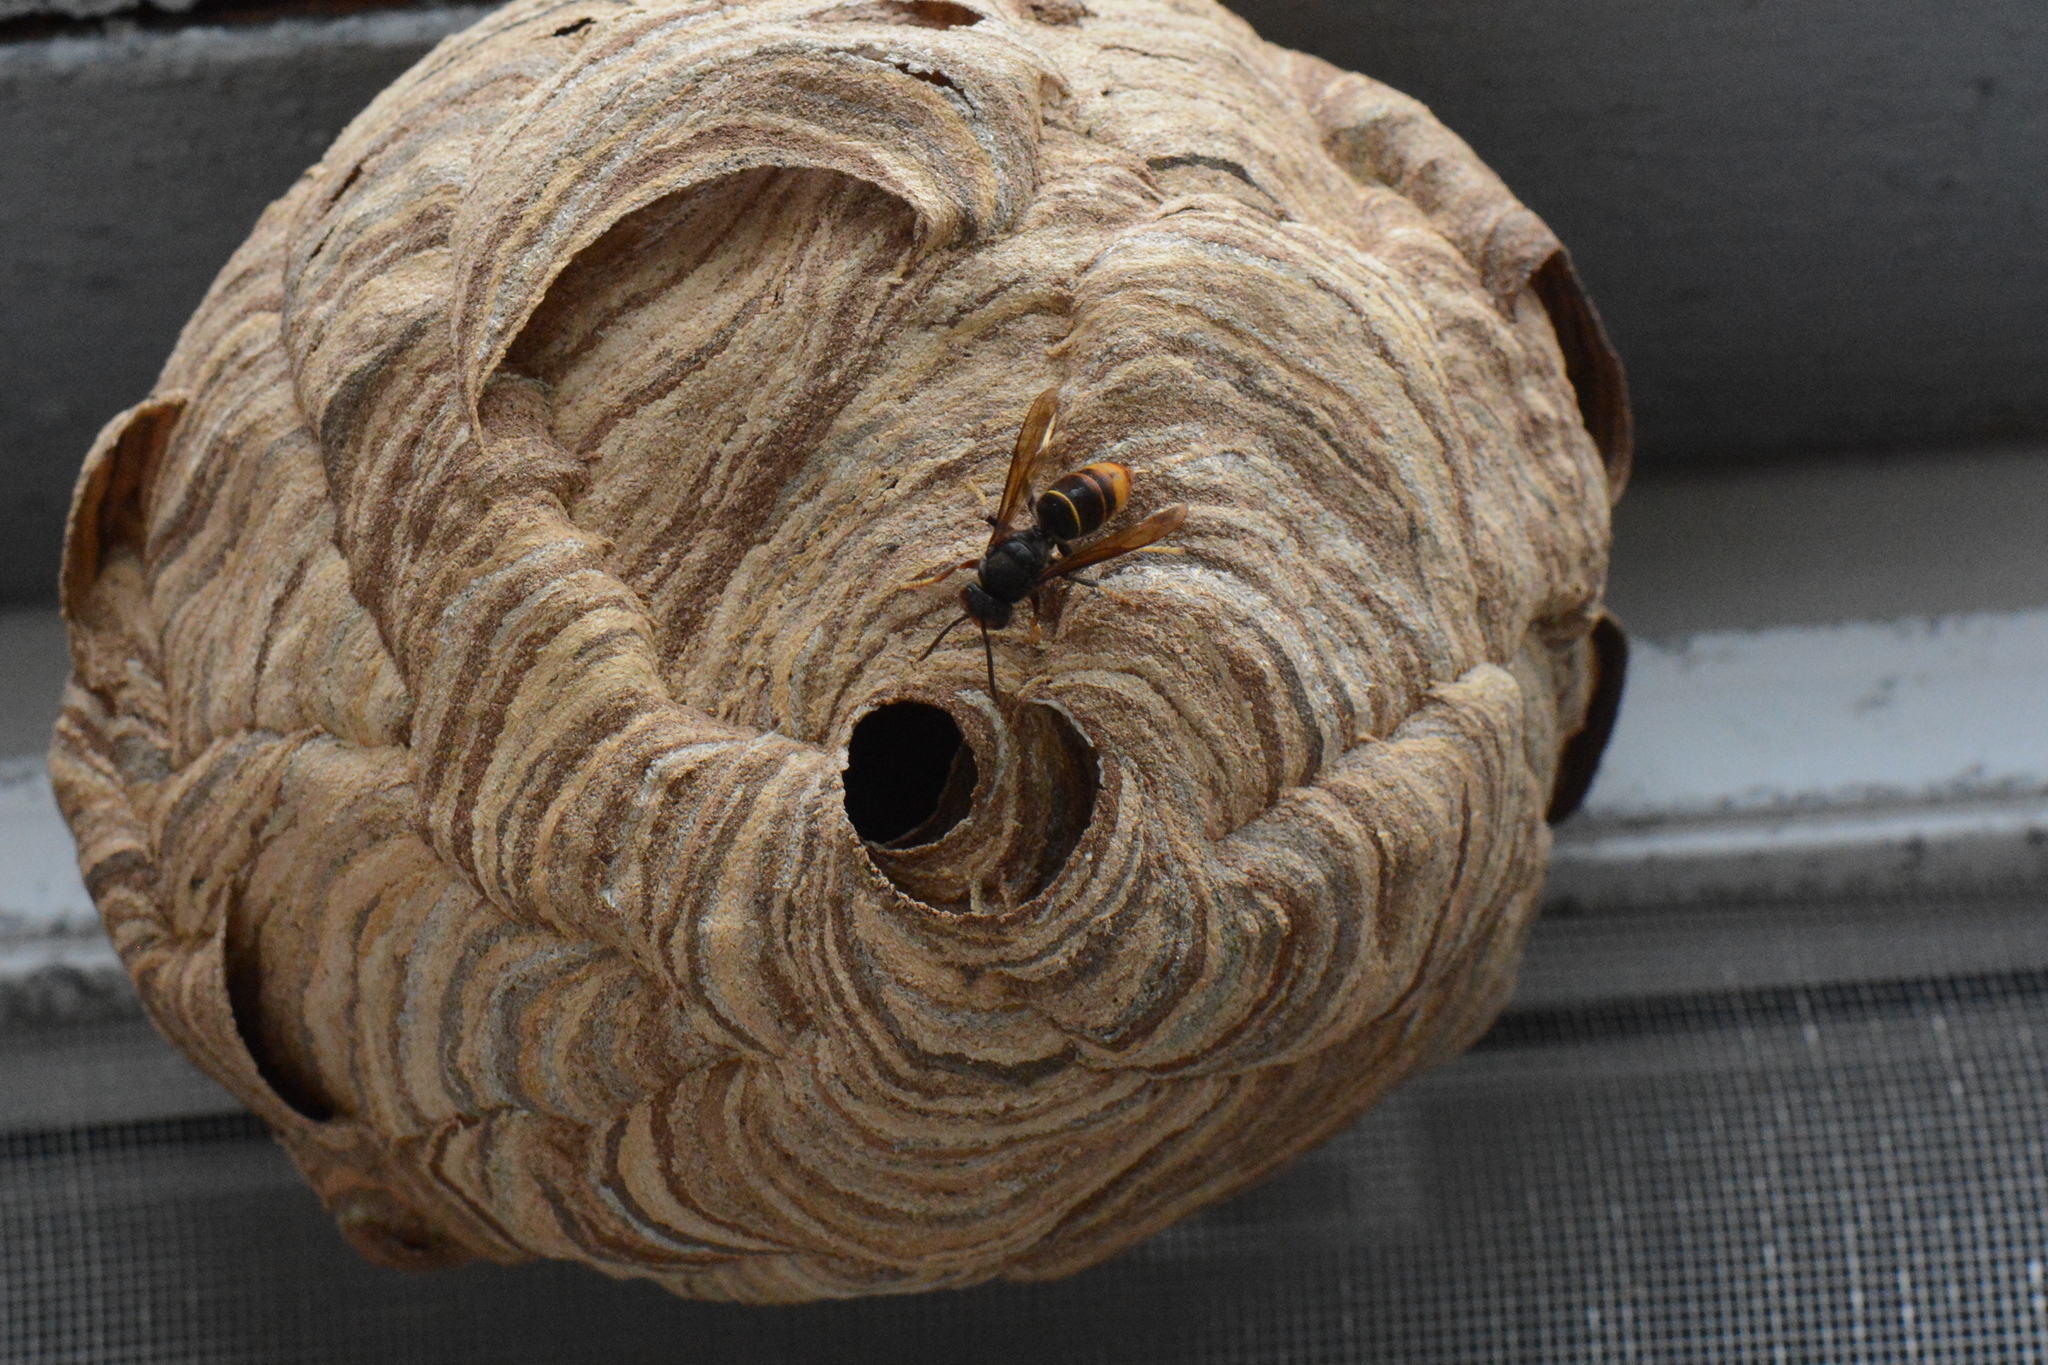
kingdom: Animalia
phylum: Arthropoda
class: Insecta
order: Hymenoptera
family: Vespidae
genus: Vespa
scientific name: Vespa velutina
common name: Asian hornet
